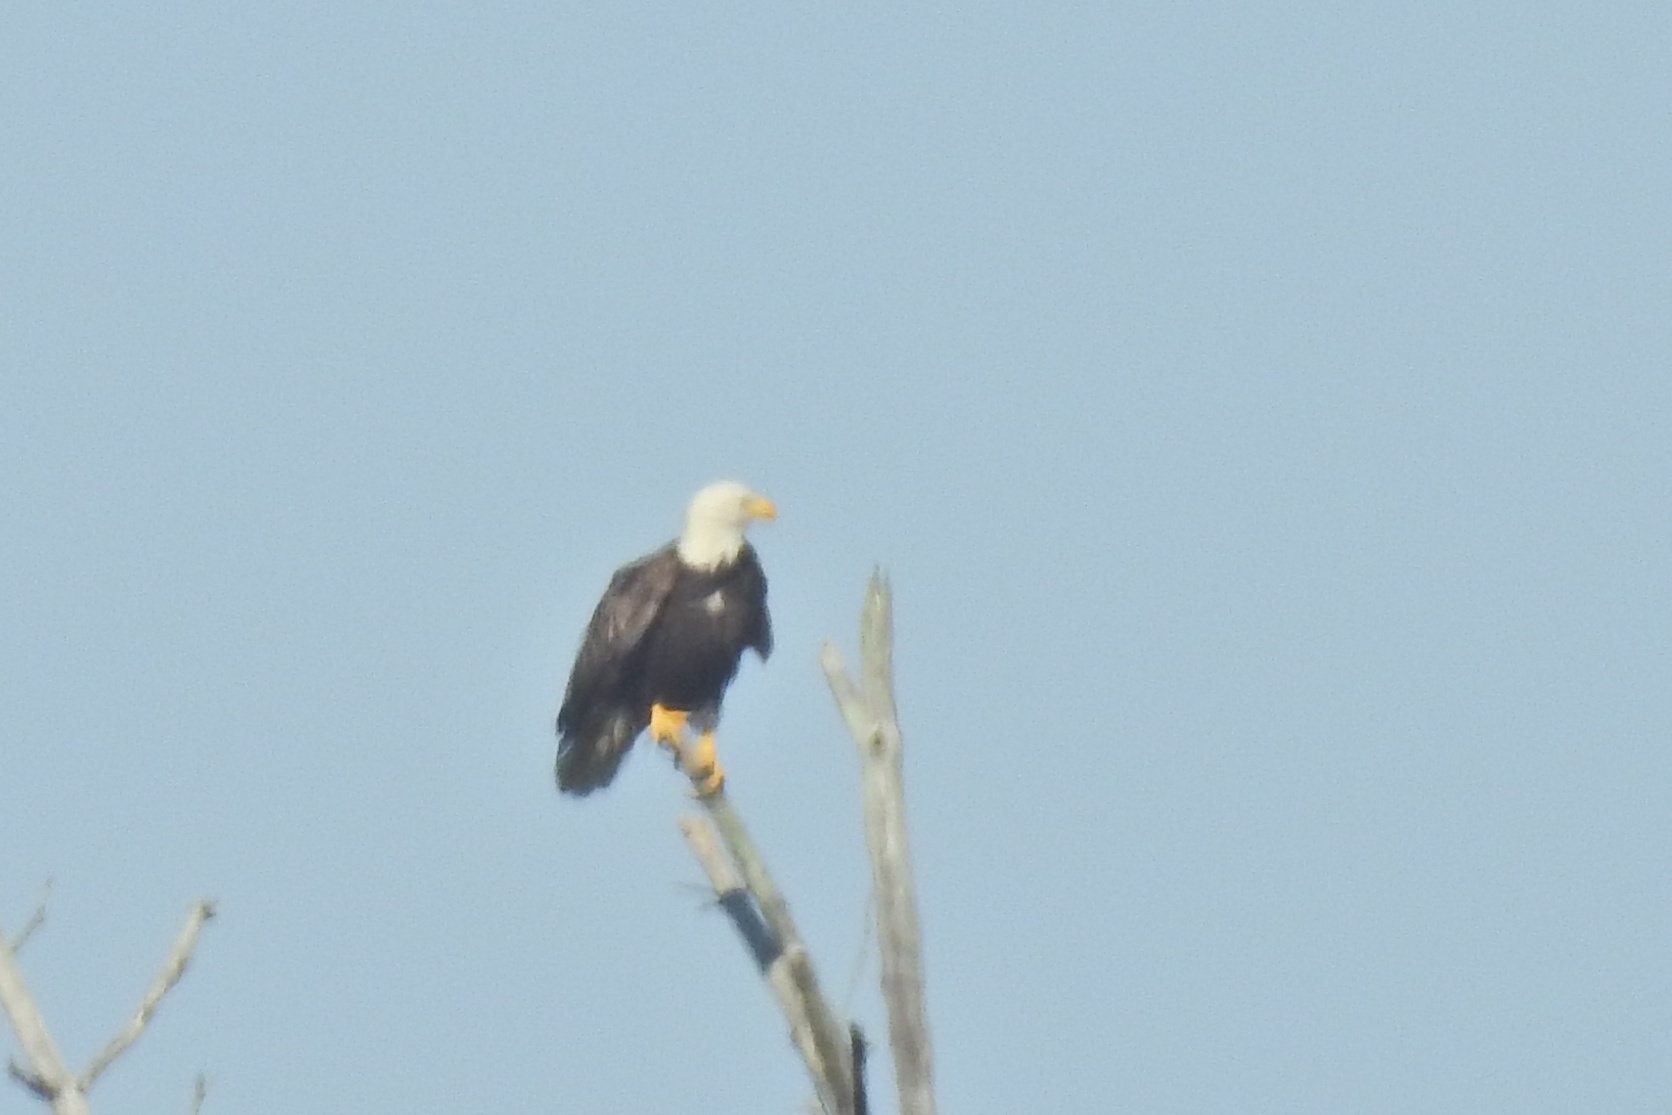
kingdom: Animalia
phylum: Chordata
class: Aves
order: Accipitriformes
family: Accipitridae
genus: Haliaeetus
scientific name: Haliaeetus leucocephalus
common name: Bald eagle
